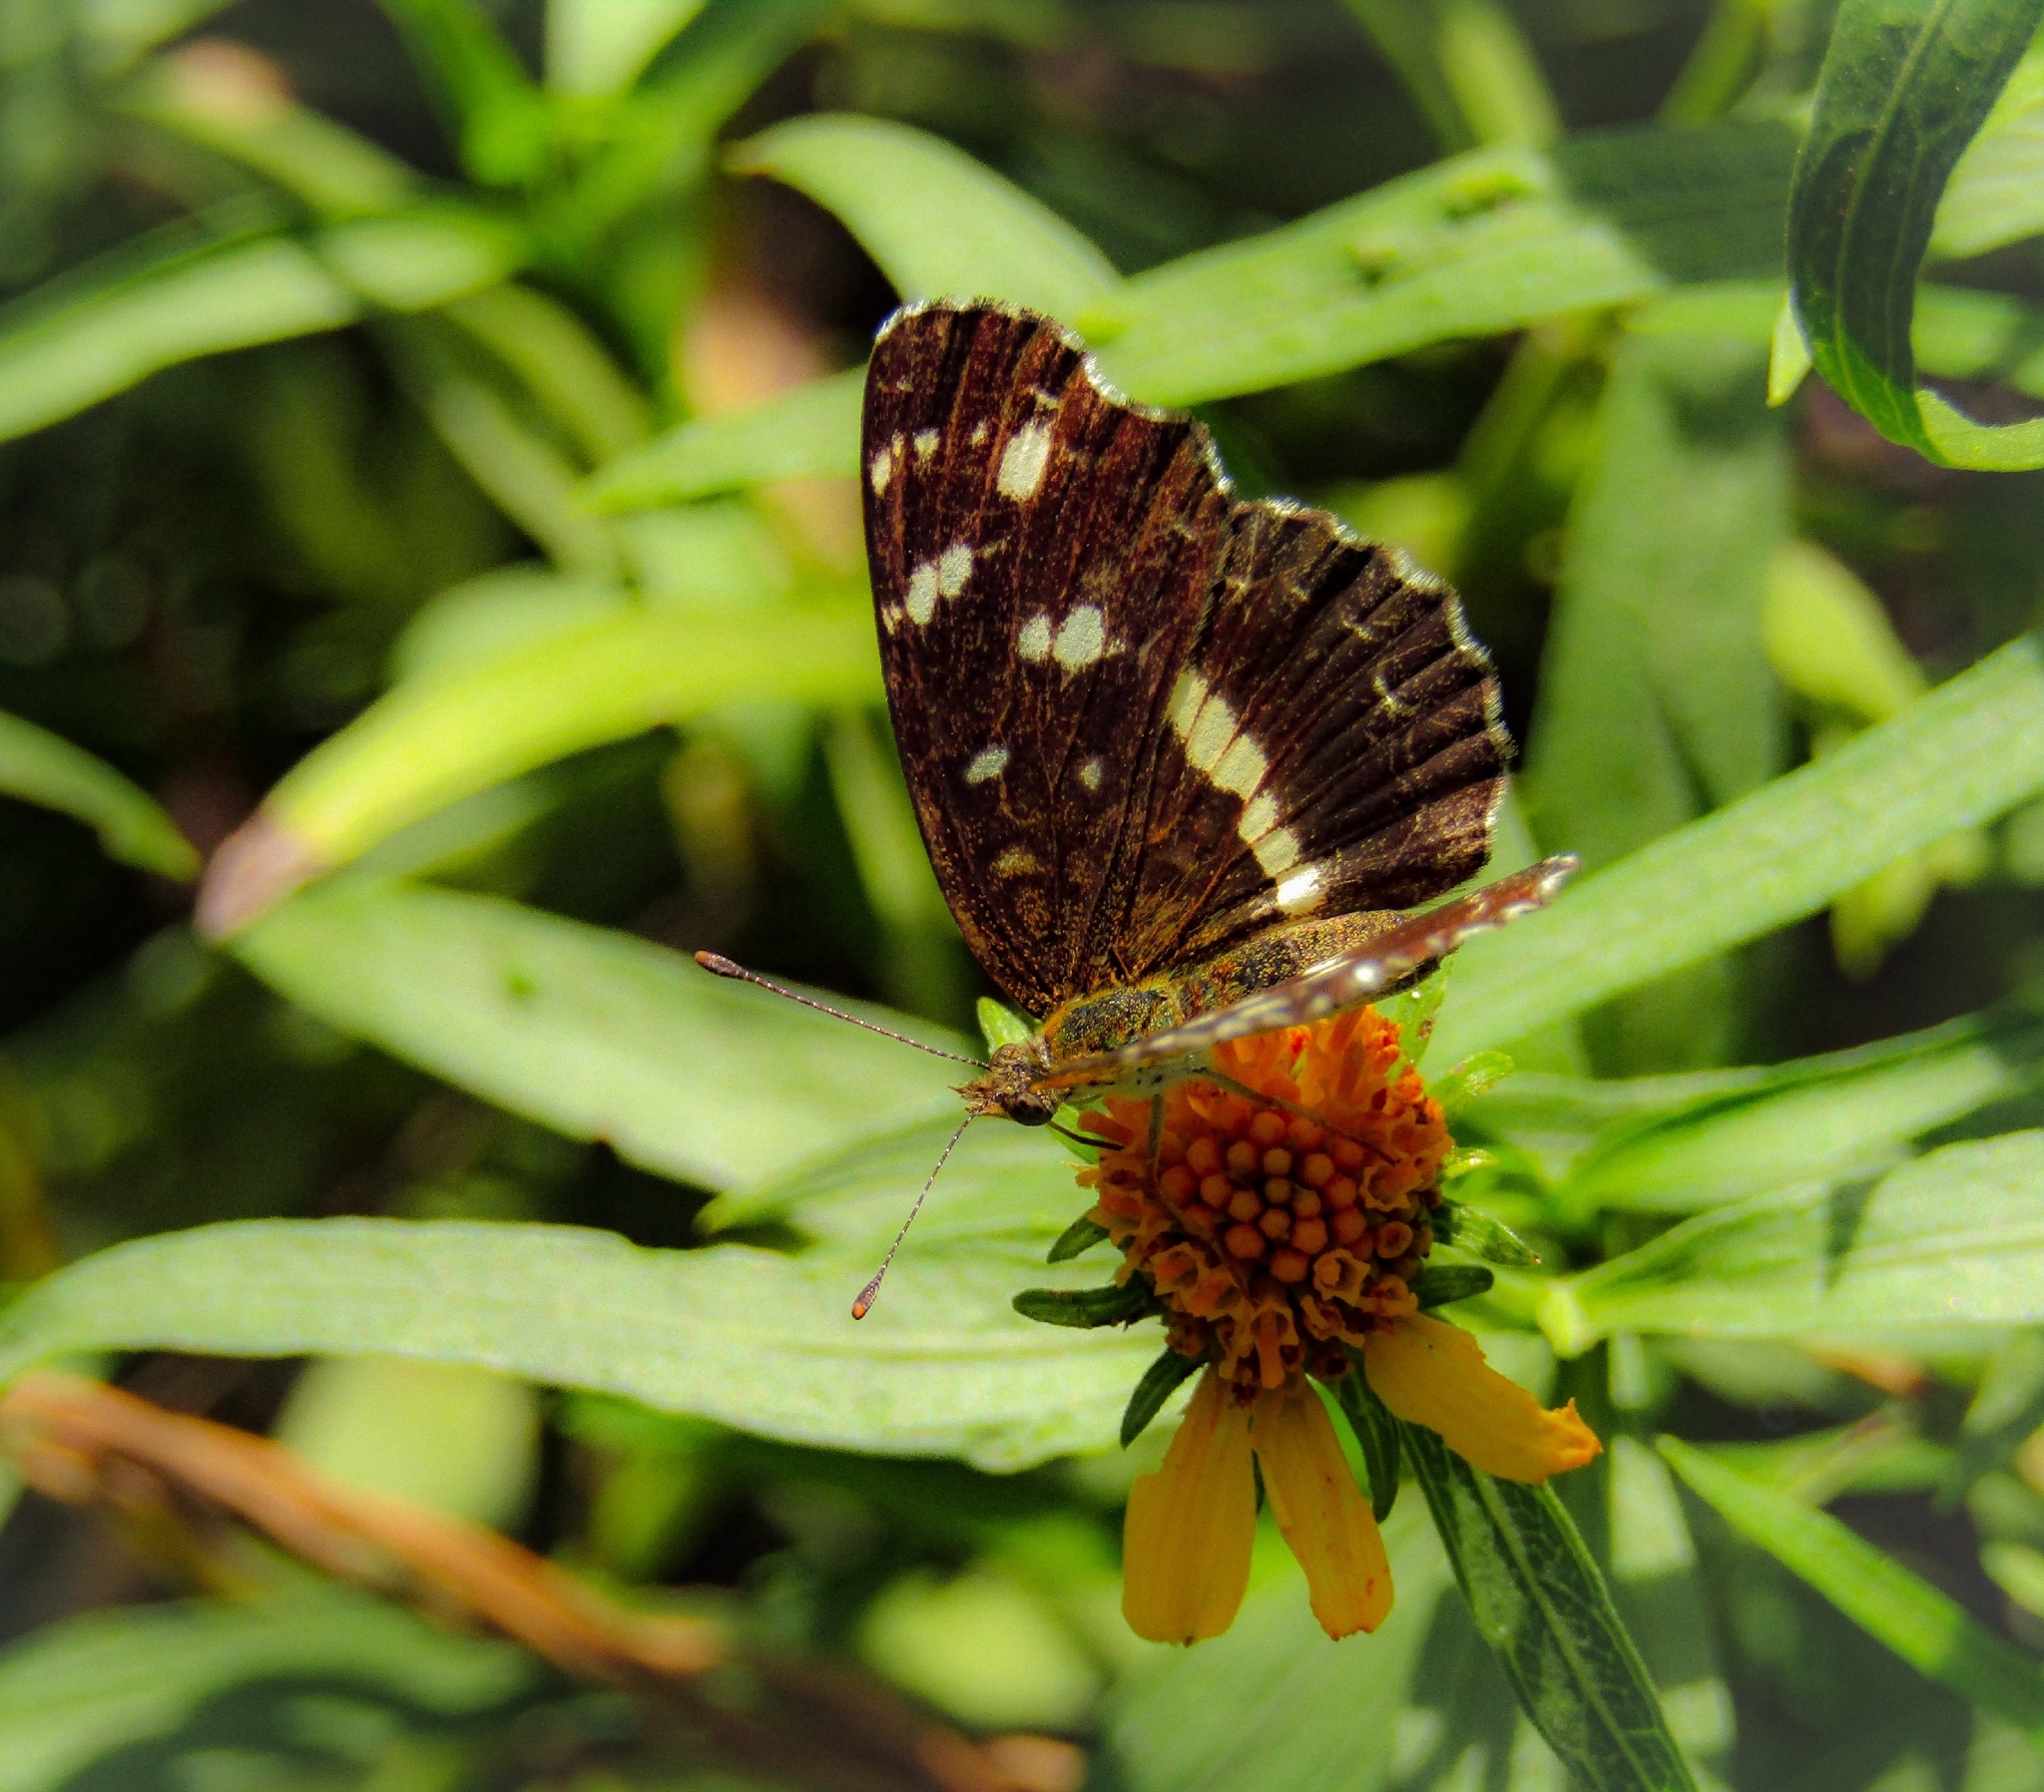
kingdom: Animalia
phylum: Arthropoda
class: Insecta
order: Lepidoptera
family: Nymphalidae
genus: Ortilia
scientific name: Ortilia ithra
